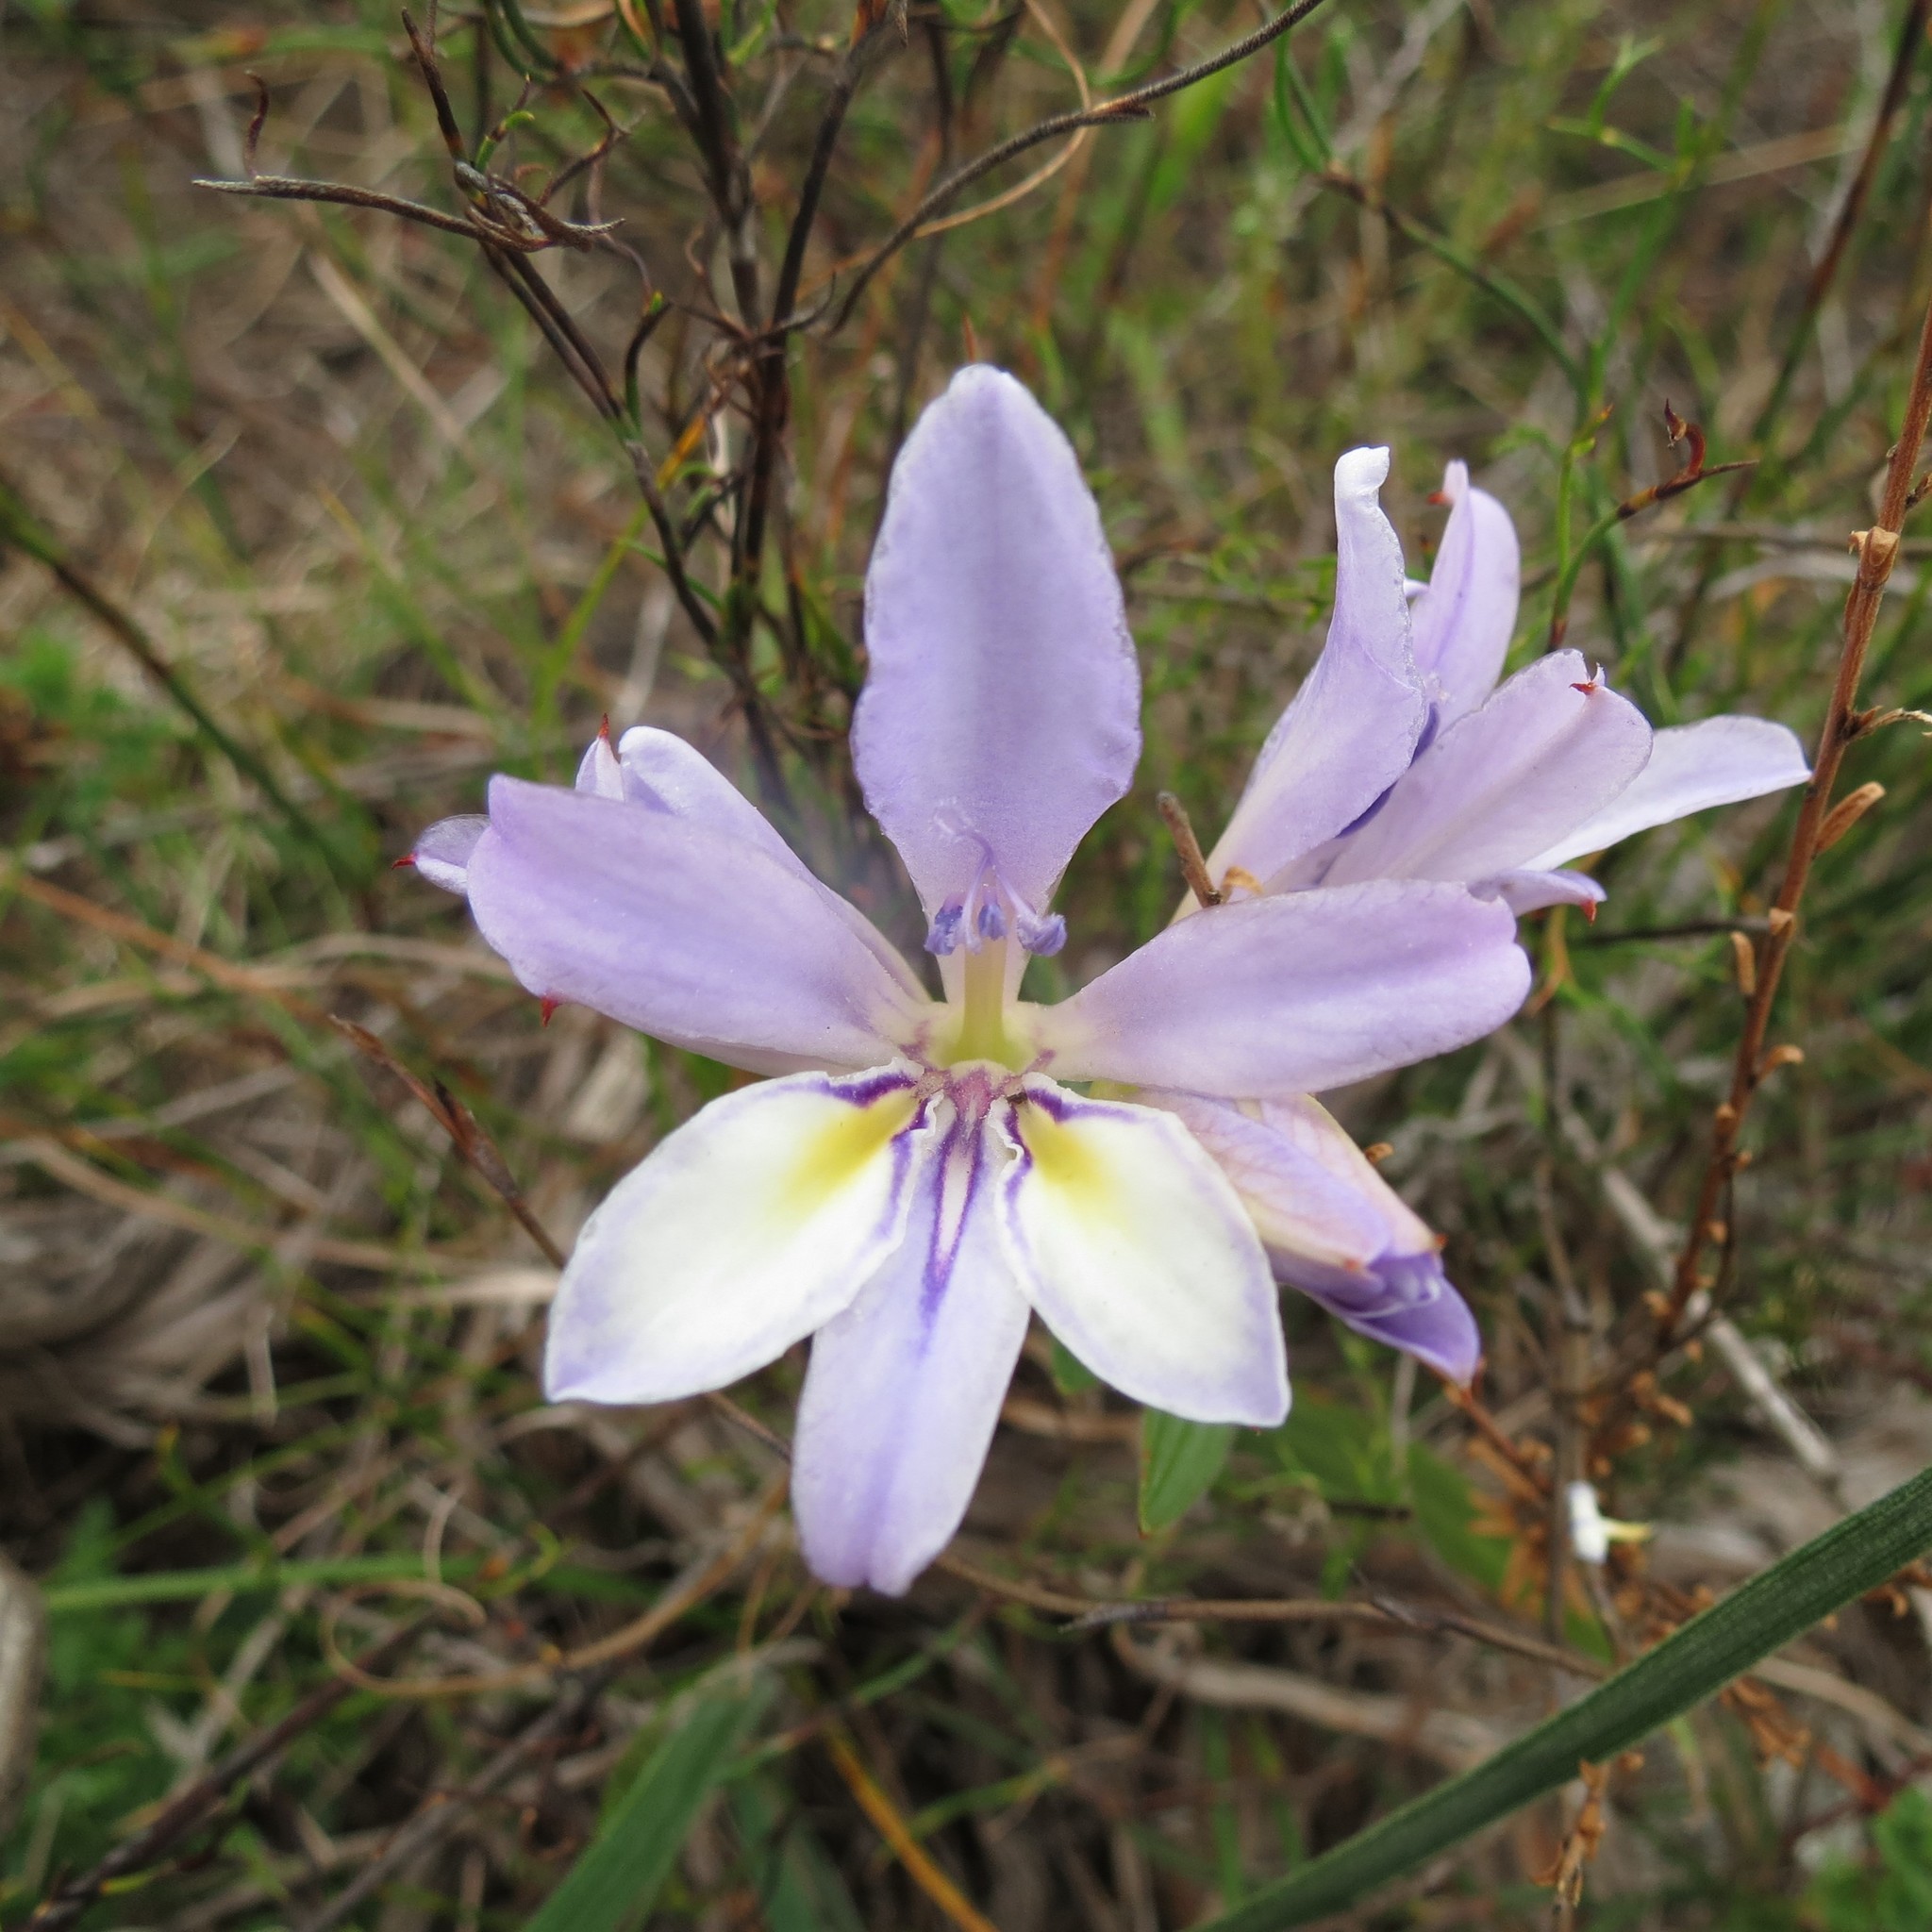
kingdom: Plantae
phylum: Tracheophyta
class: Liliopsida
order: Asparagales
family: Iridaceae
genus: Babiana
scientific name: Babiana fourcadei
